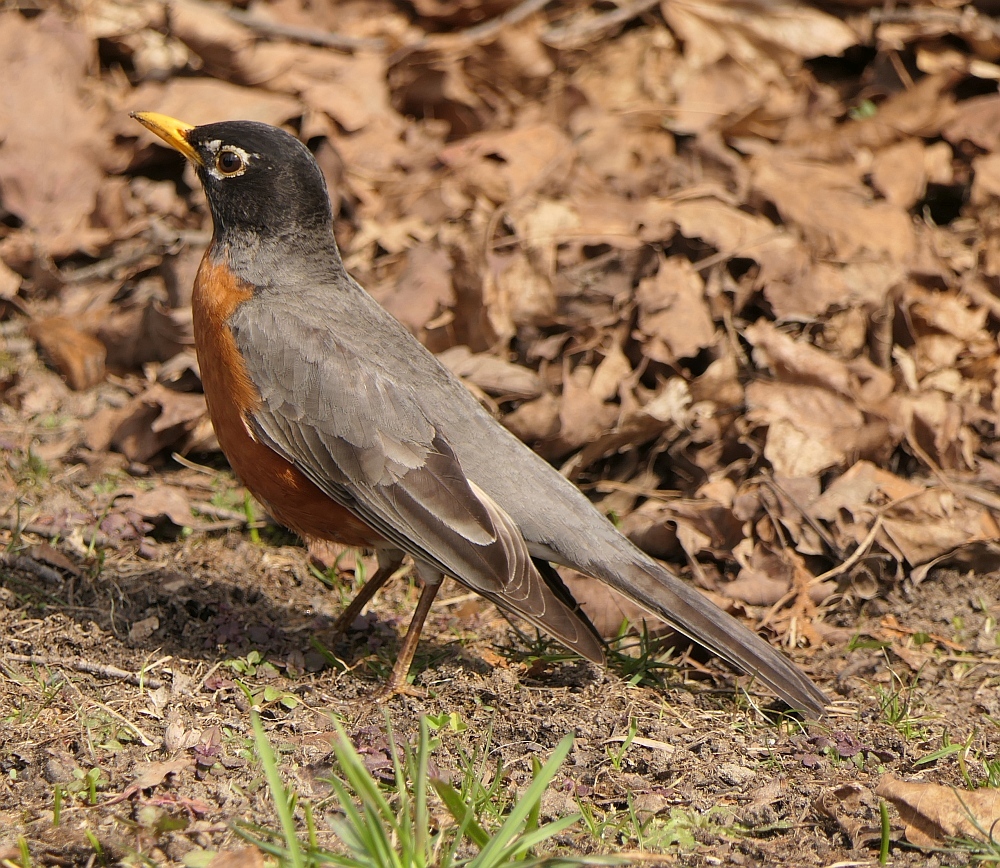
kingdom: Animalia
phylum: Chordata
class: Aves
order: Passeriformes
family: Turdidae
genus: Turdus
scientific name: Turdus migratorius
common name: American robin
